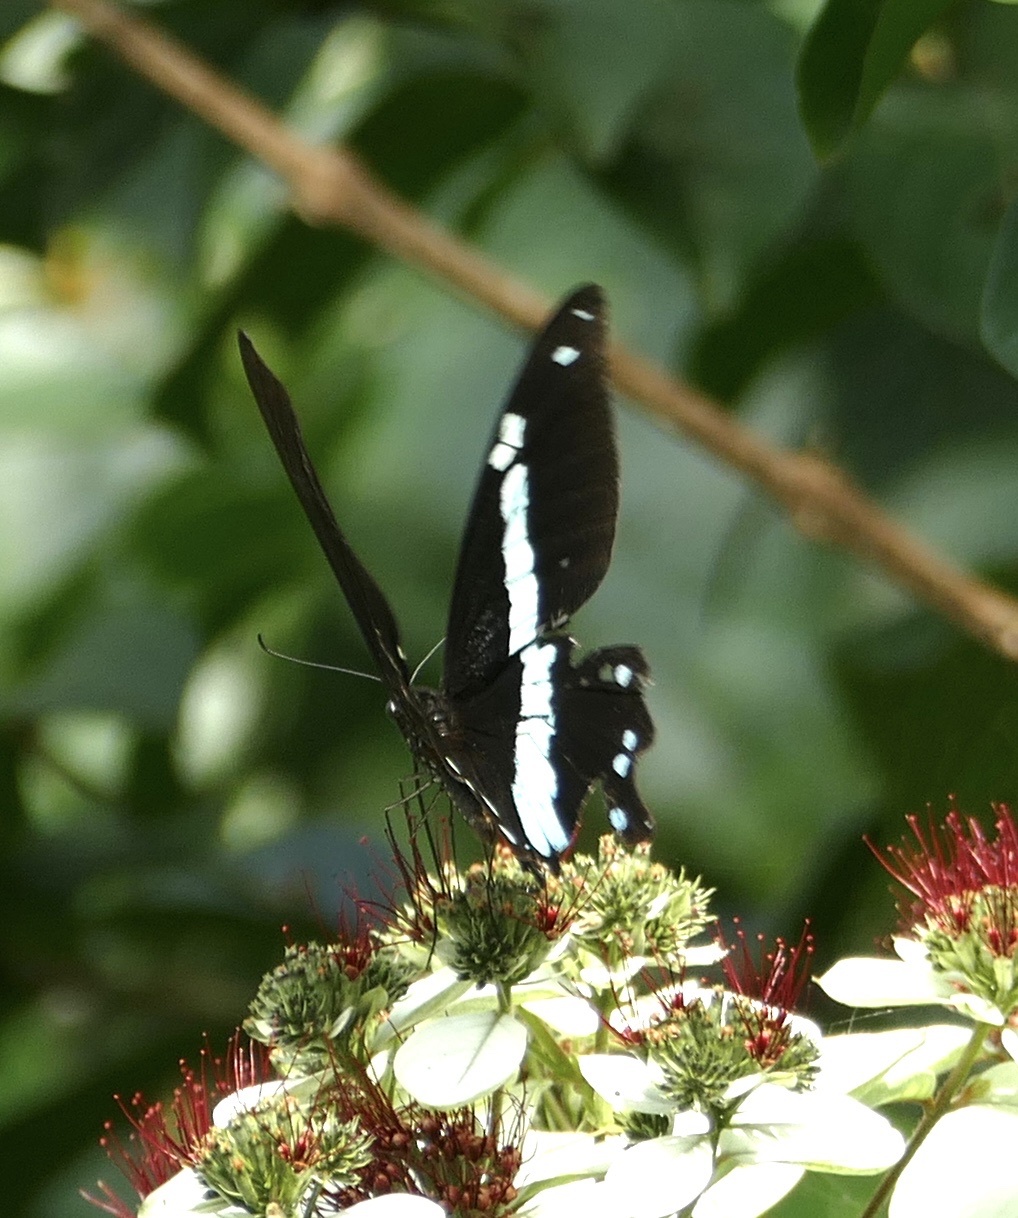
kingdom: Animalia
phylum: Arthropoda
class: Insecta
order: Lepidoptera
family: Papilionidae
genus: Papilio
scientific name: Papilio nireus
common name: Greenbanded swallowtail
